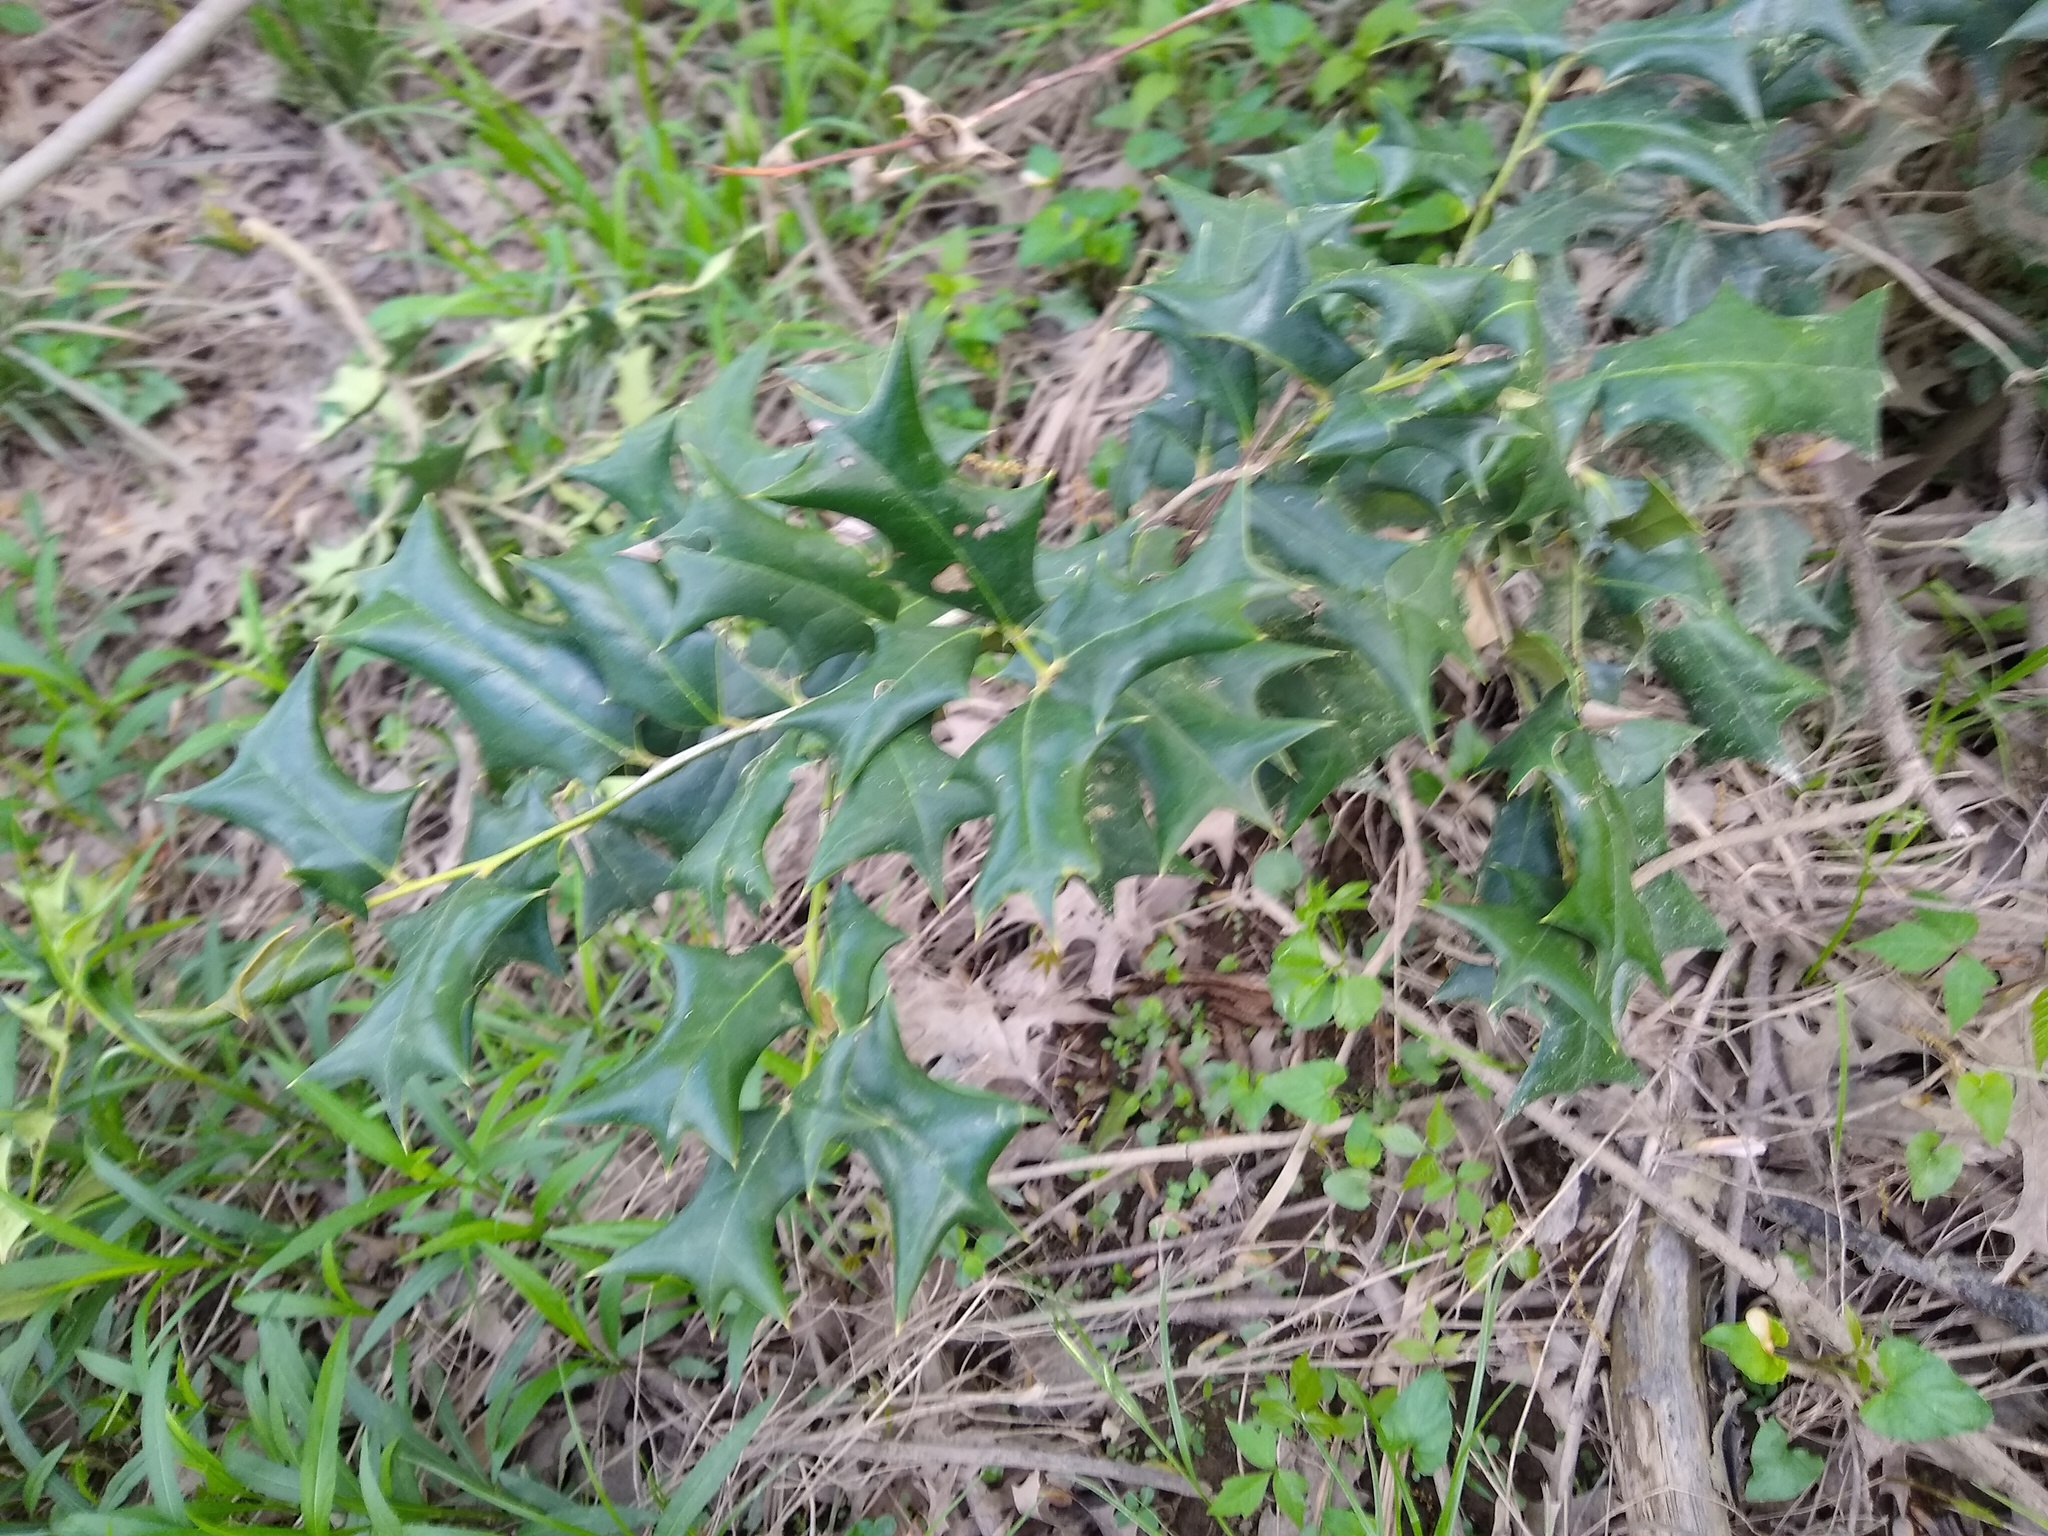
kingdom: Plantae
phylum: Tracheophyta
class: Magnoliopsida
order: Aquifoliales
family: Aquifoliaceae
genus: Ilex
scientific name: Ilex cornuta
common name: Chinese holly
